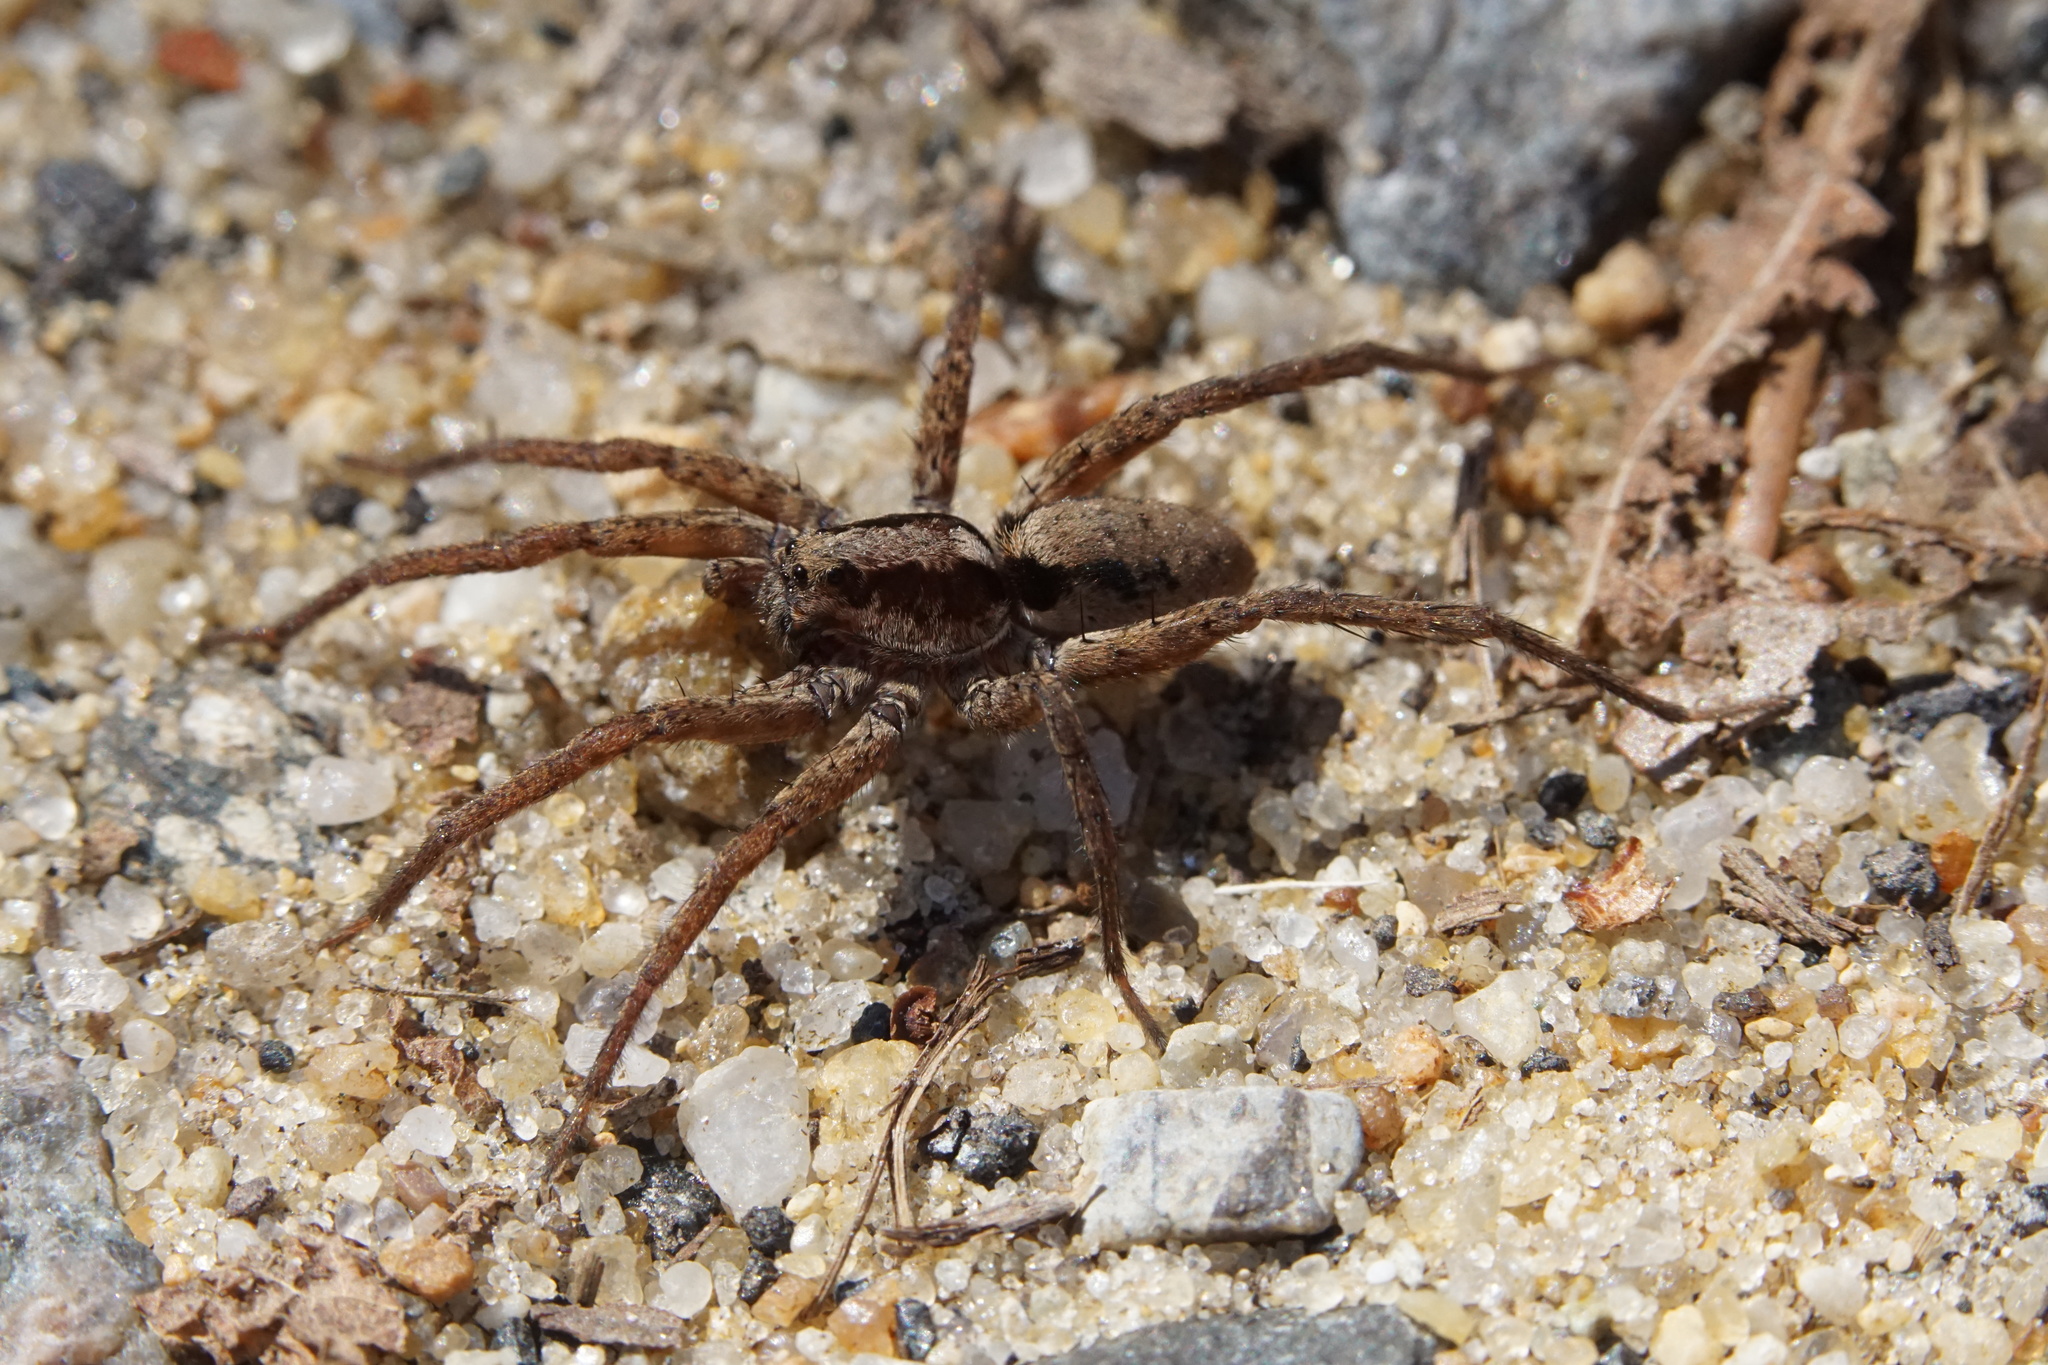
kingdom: Animalia
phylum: Arthropoda
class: Arachnida
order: Araneae
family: Lycosidae
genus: Gladicosa
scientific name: Gladicosa gulosa
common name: Drumming sword wolf spider
